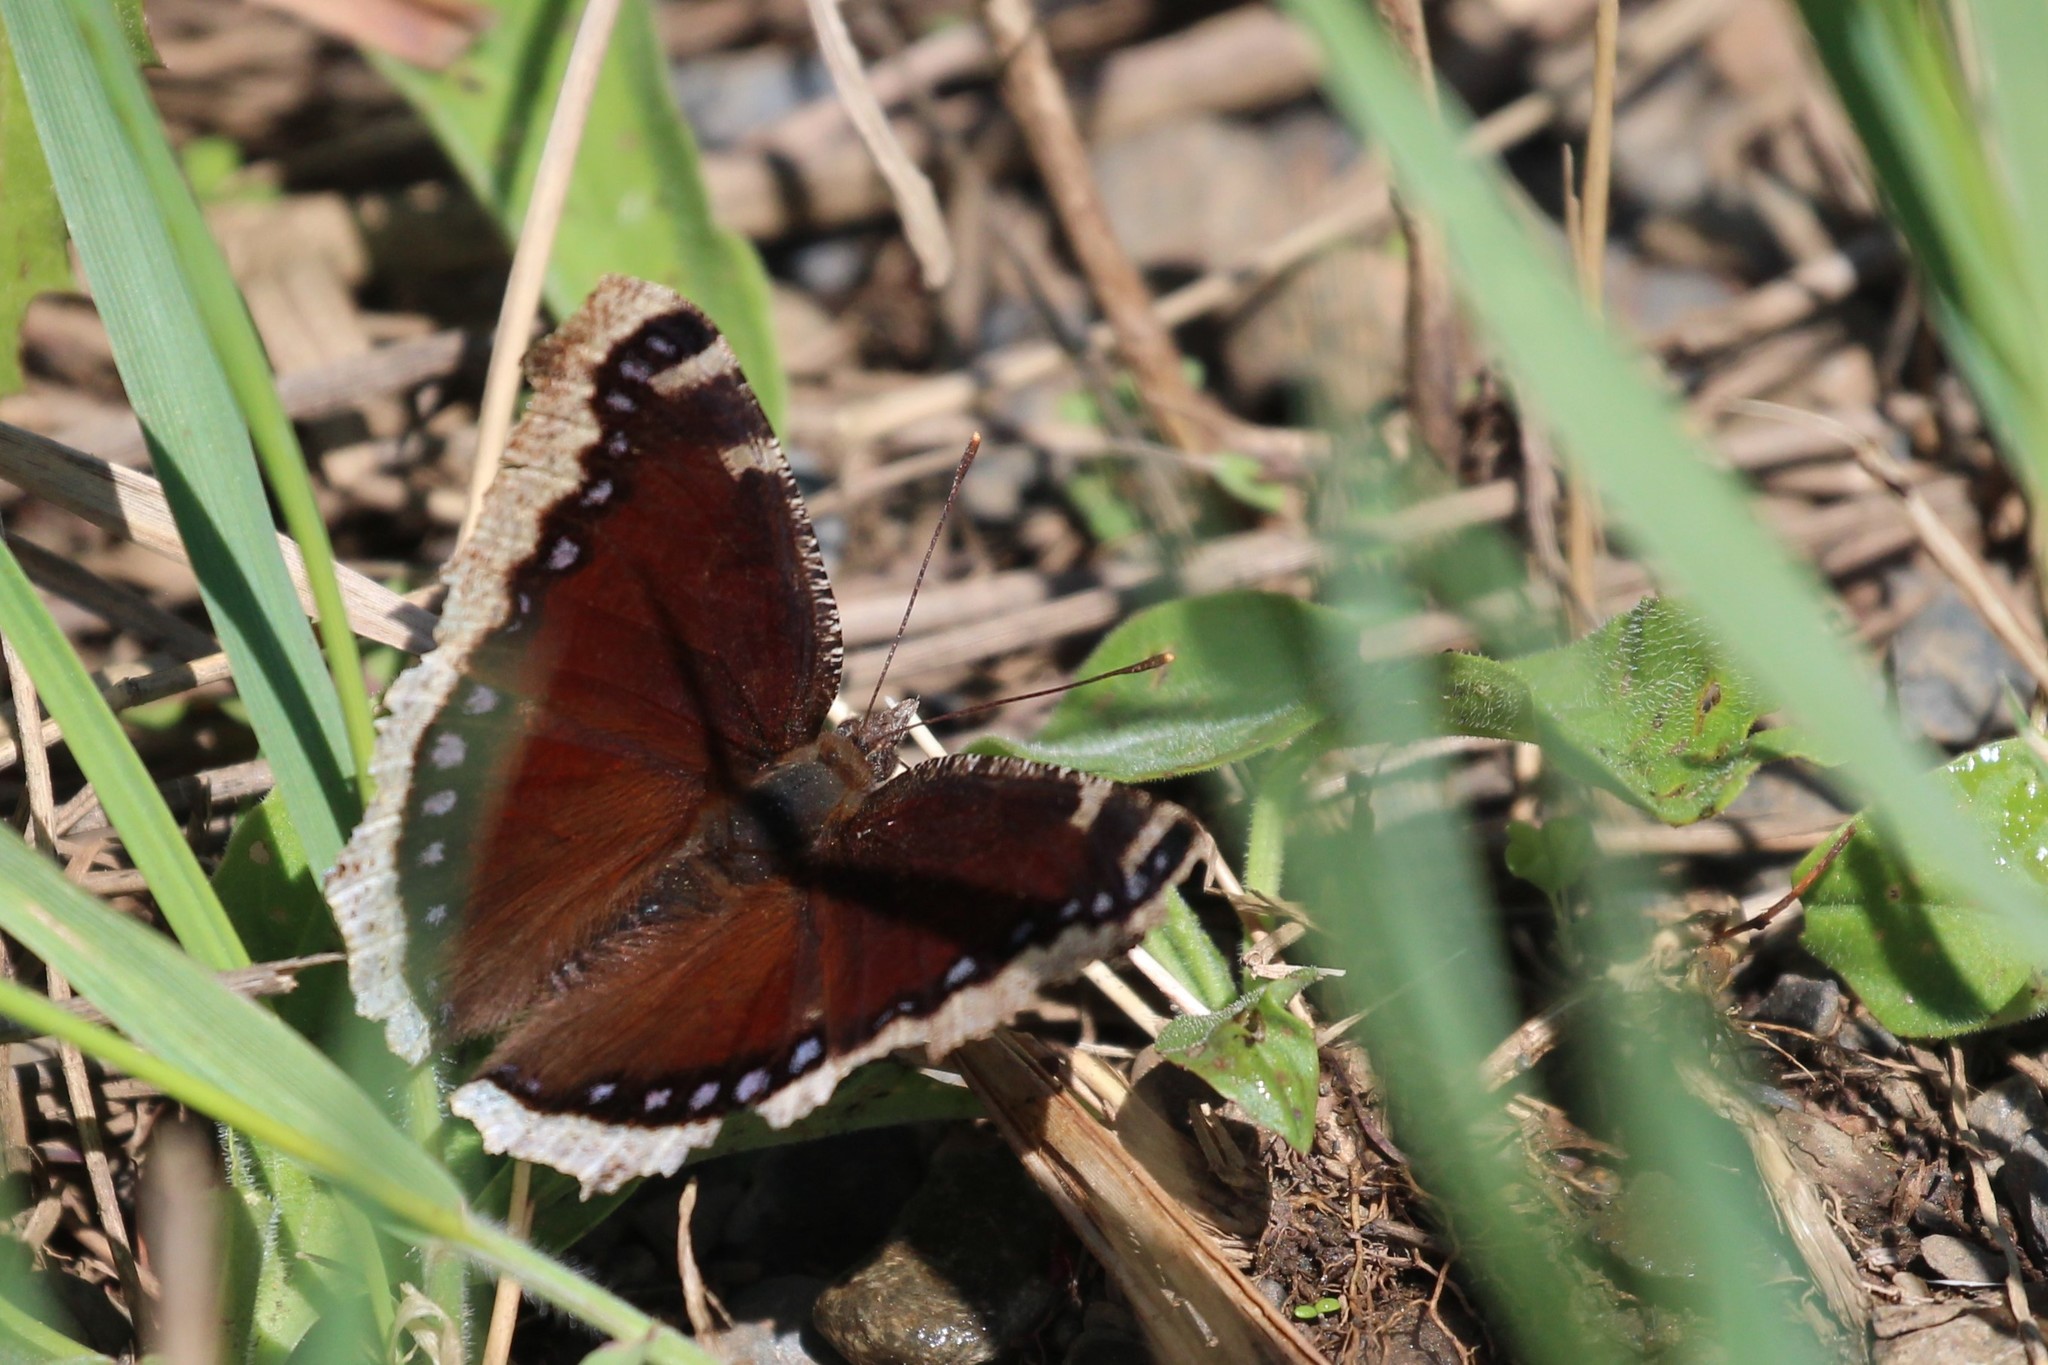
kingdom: Animalia
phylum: Arthropoda
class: Insecta
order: Lepidoptera
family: Nymphalidae
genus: Nymphalis
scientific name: Nymphalis antiopa
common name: Camberwell beauty
